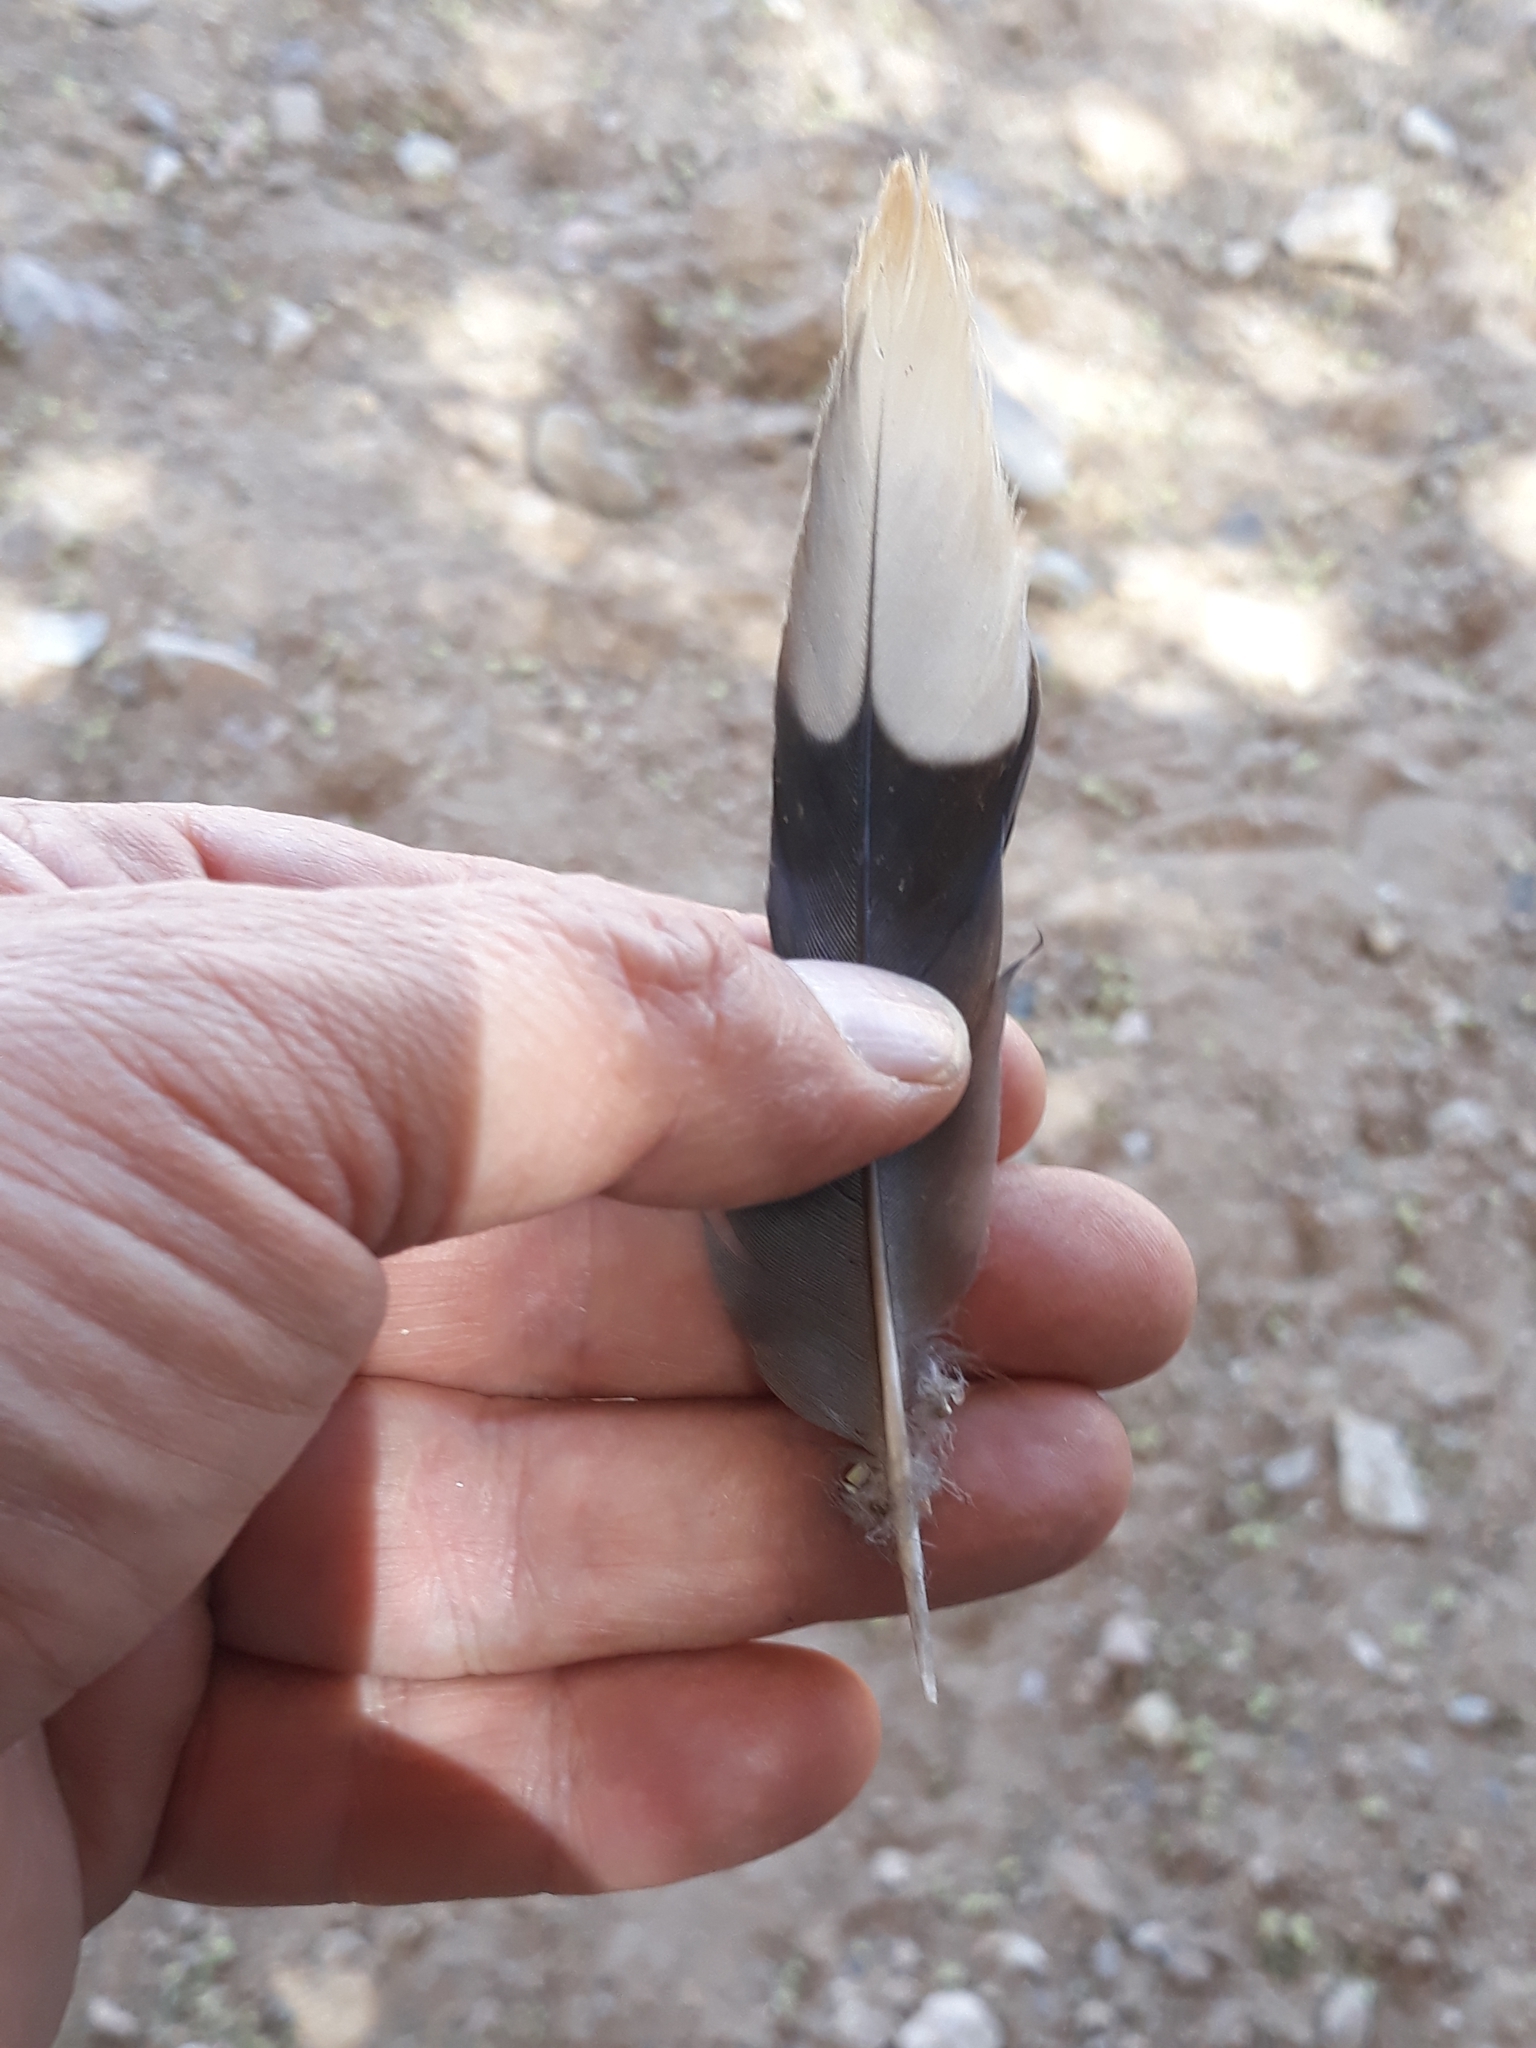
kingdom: Animalia
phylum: Chordata
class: Aves
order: Columbiformes
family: Columbidae
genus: Spilopelia
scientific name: Spilopelia senegalensis
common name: Laughing dove
